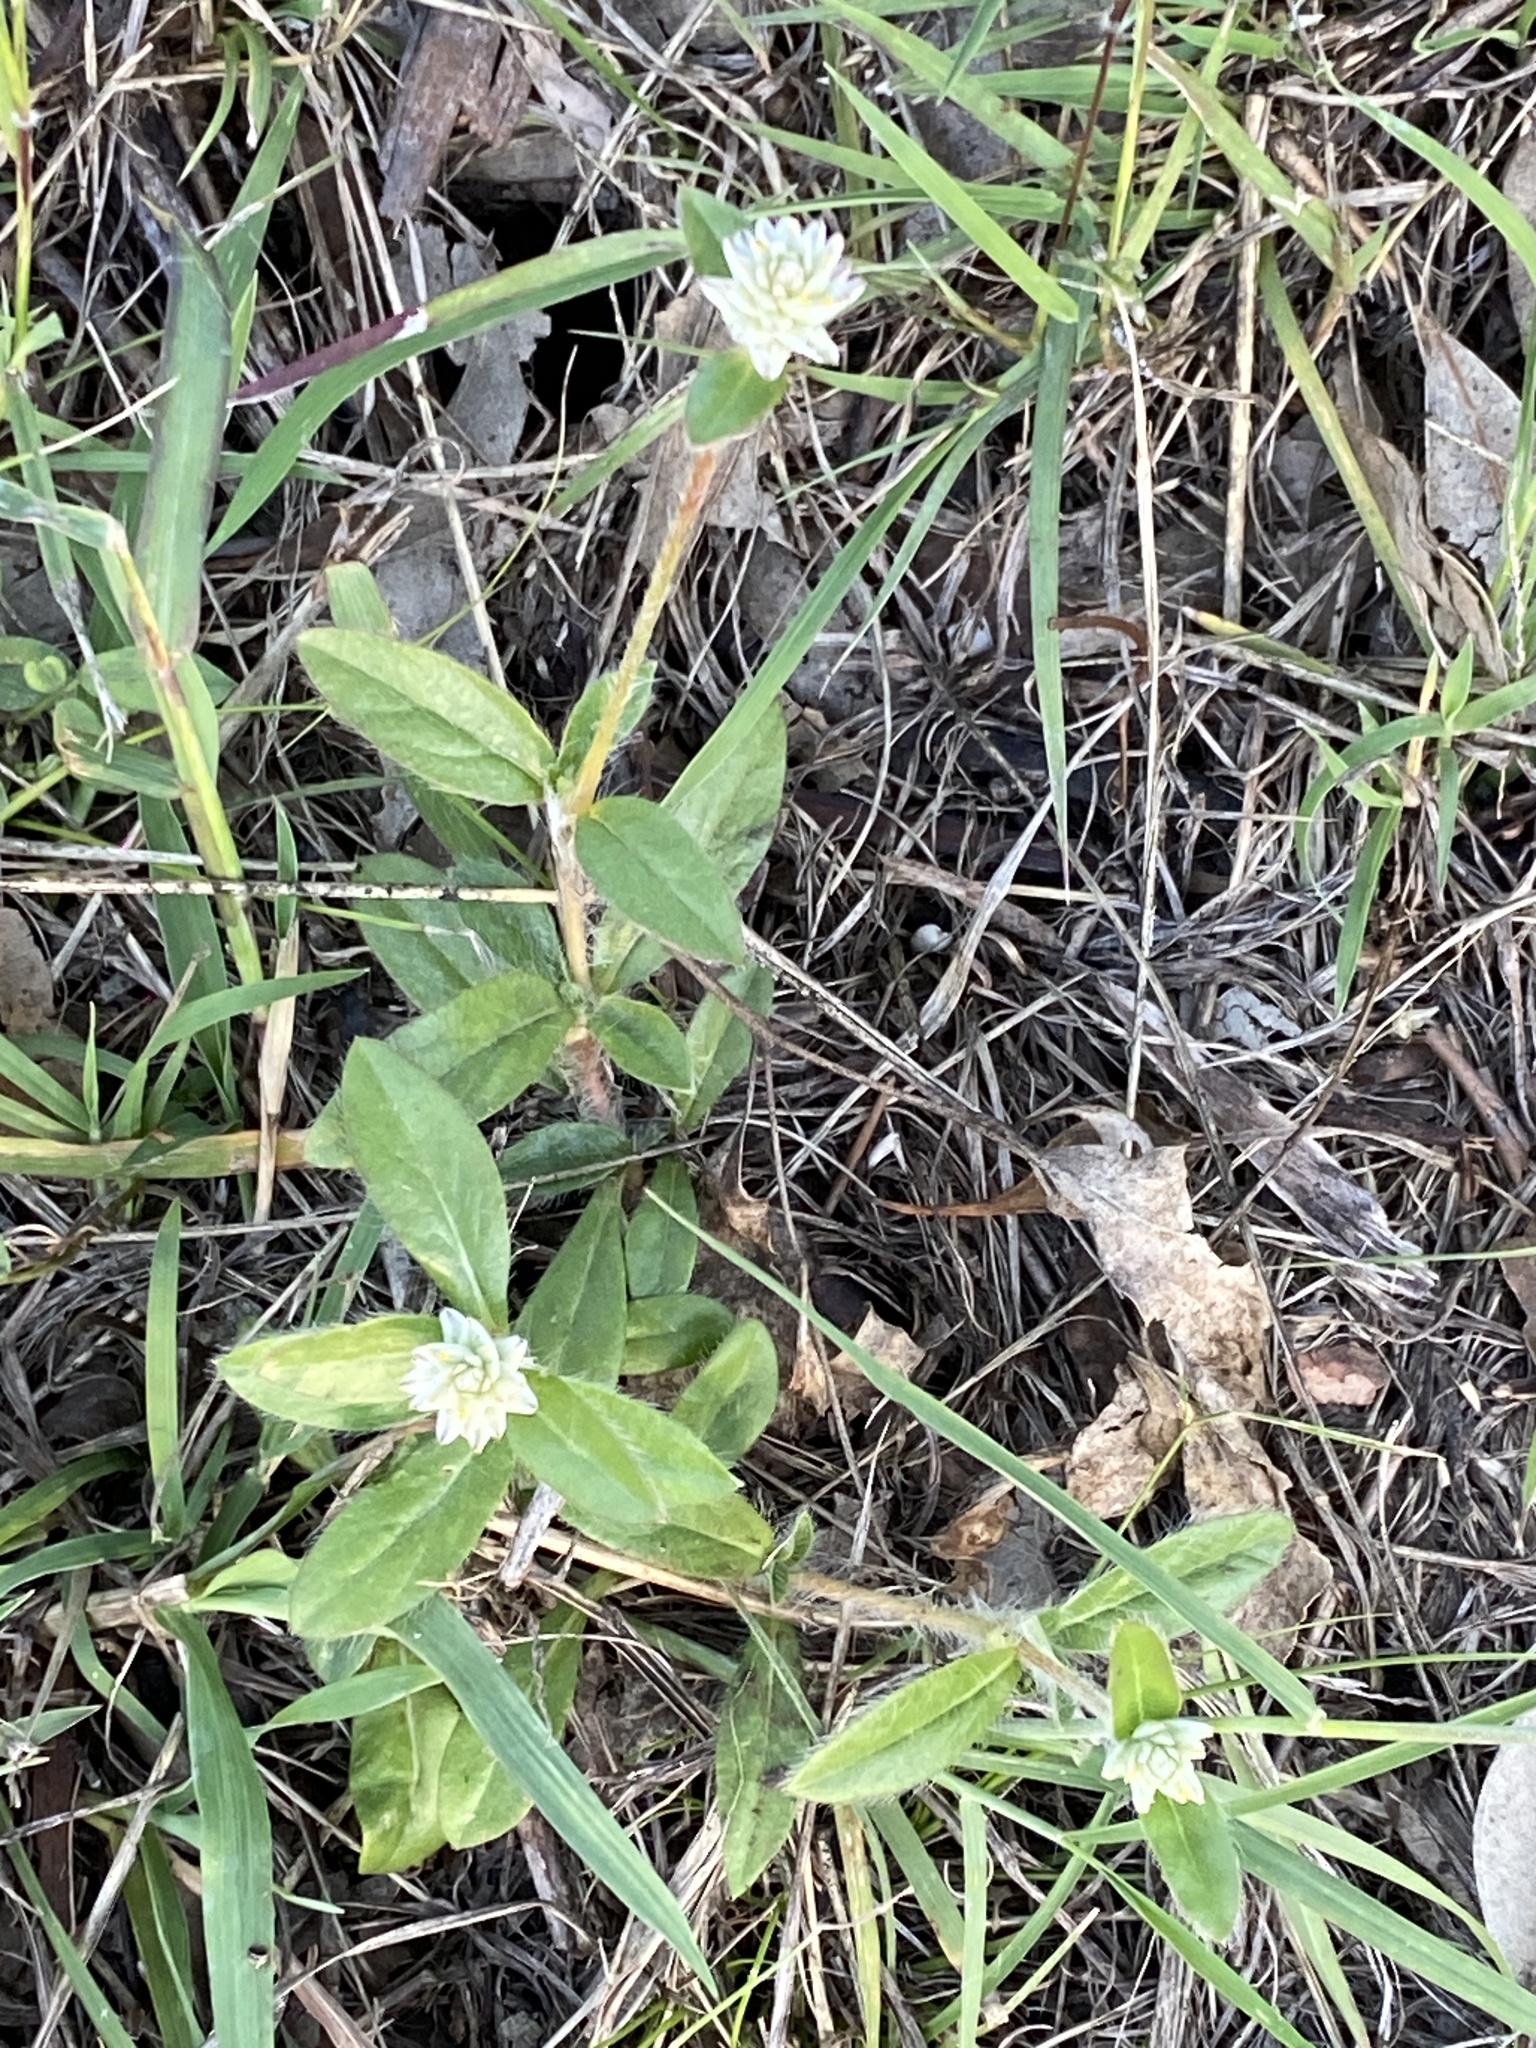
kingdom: Plantae
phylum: Tracheophyta
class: Magnoliopsida
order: Caryophyllales
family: Amaranthaceae
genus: Gomphrena
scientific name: Gomphrena celosioides
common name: Gomphrena-weed
